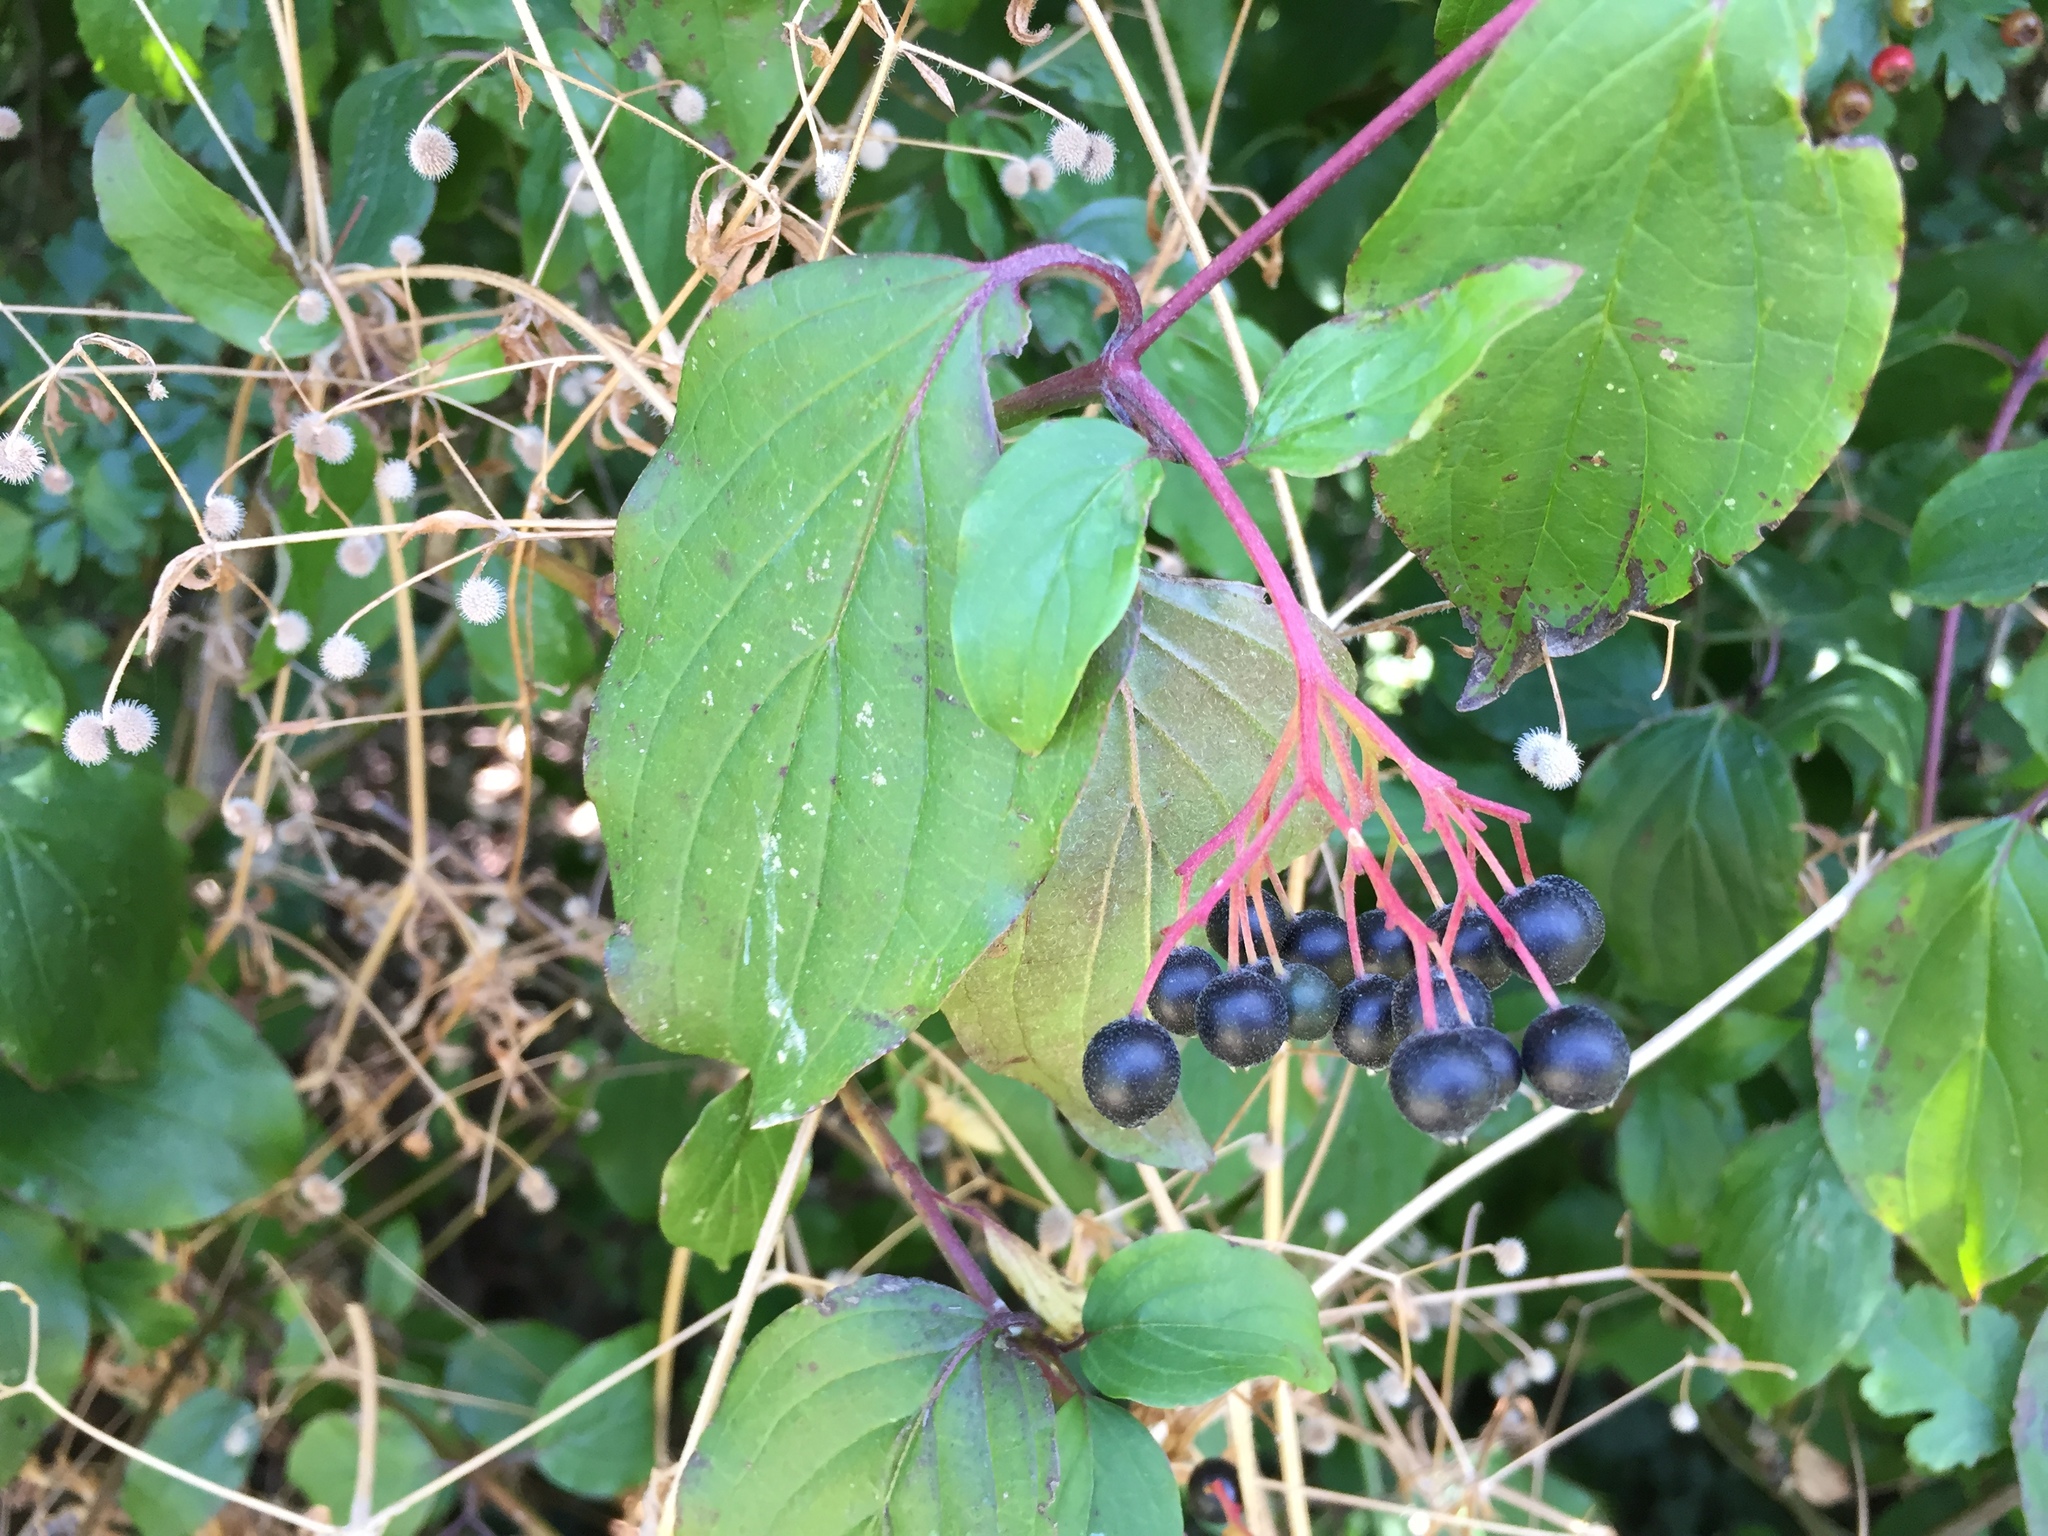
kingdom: Plantae
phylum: Tracheophyta
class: Magnoliopsida
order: Cornales
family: Cornaceae
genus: Cornus
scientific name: Cornus sanguinea
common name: Dogwood
